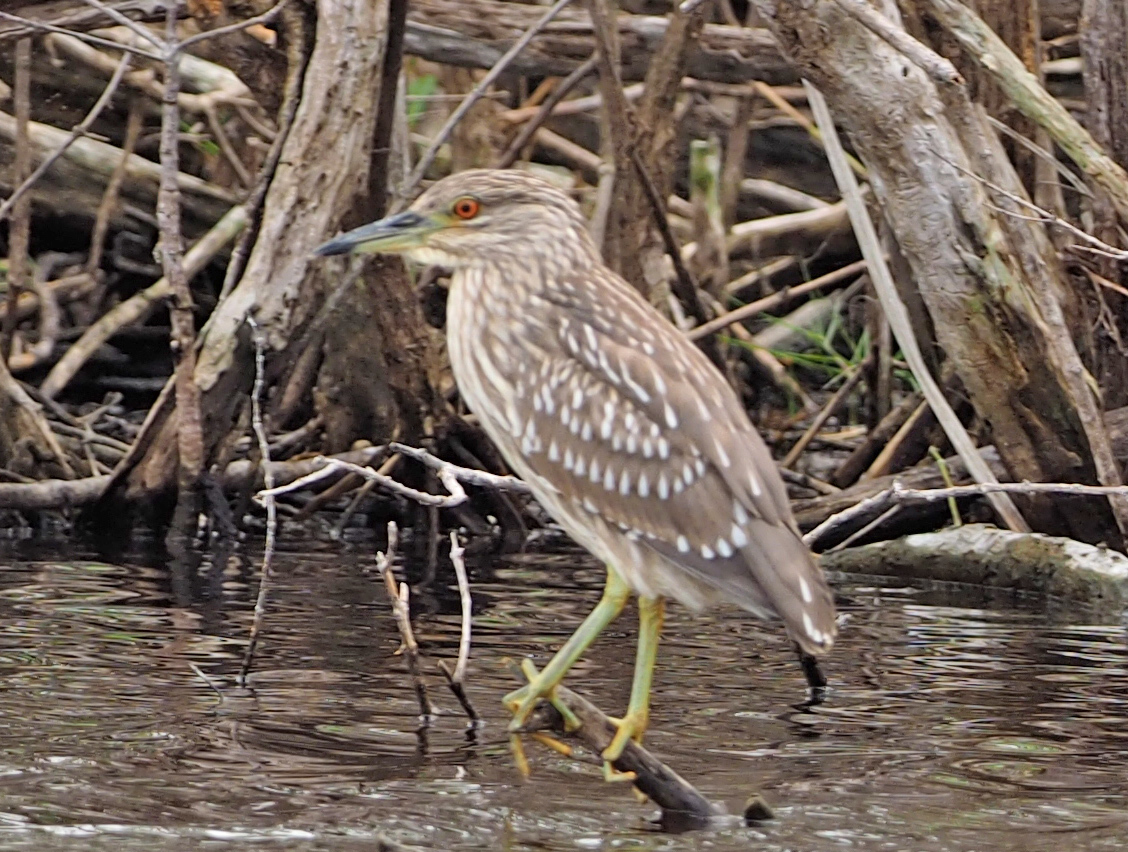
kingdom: Animalia
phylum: Chordata
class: Aves
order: Pelecaniformes
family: Ardeidae
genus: Nycticorax
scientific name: Nycticorax nycticorax
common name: Black-crowned night heron
